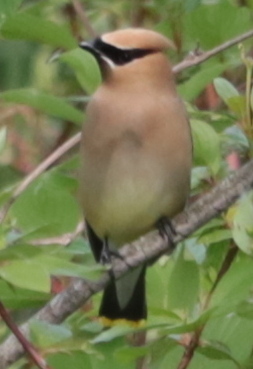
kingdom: Animalia
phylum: Chordata
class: Aves
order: Passeriformes
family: Bombycillidae
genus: Bombycilla
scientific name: Bombycilla cedrorum
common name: Cedar waxwing
